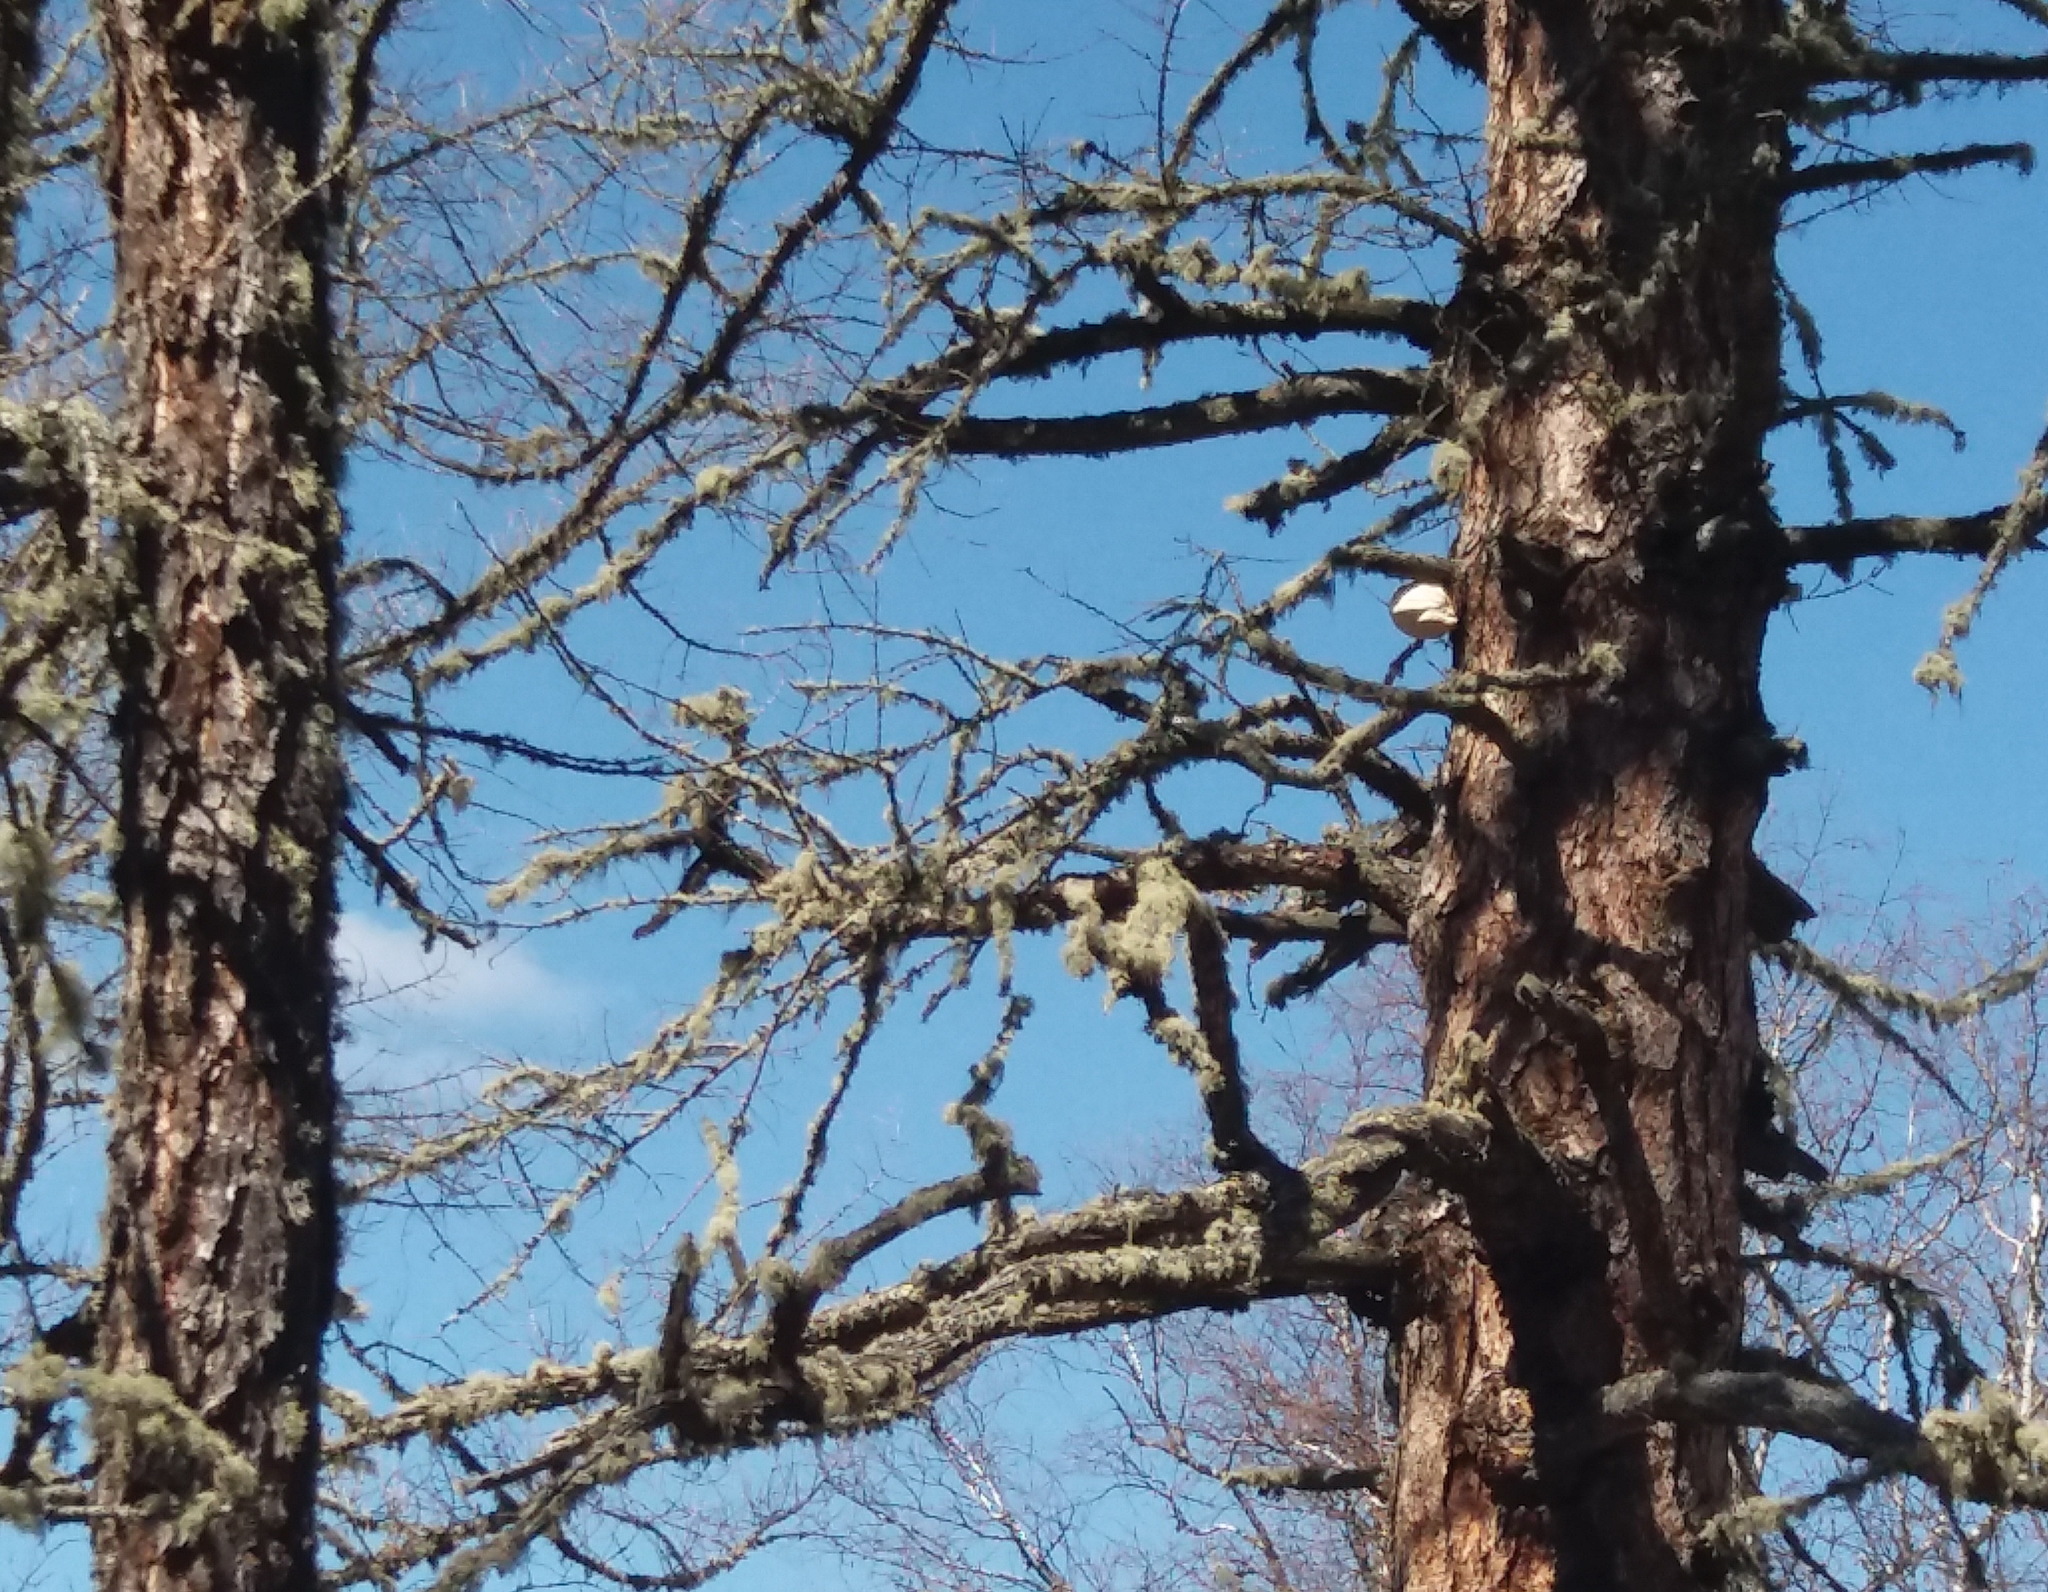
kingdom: Fungi
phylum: Basidiomycota
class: Agaricomycetes
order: Polyporales
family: Fomitopsidaceae
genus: Fomitopsis
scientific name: Fomitopsis officinalis
